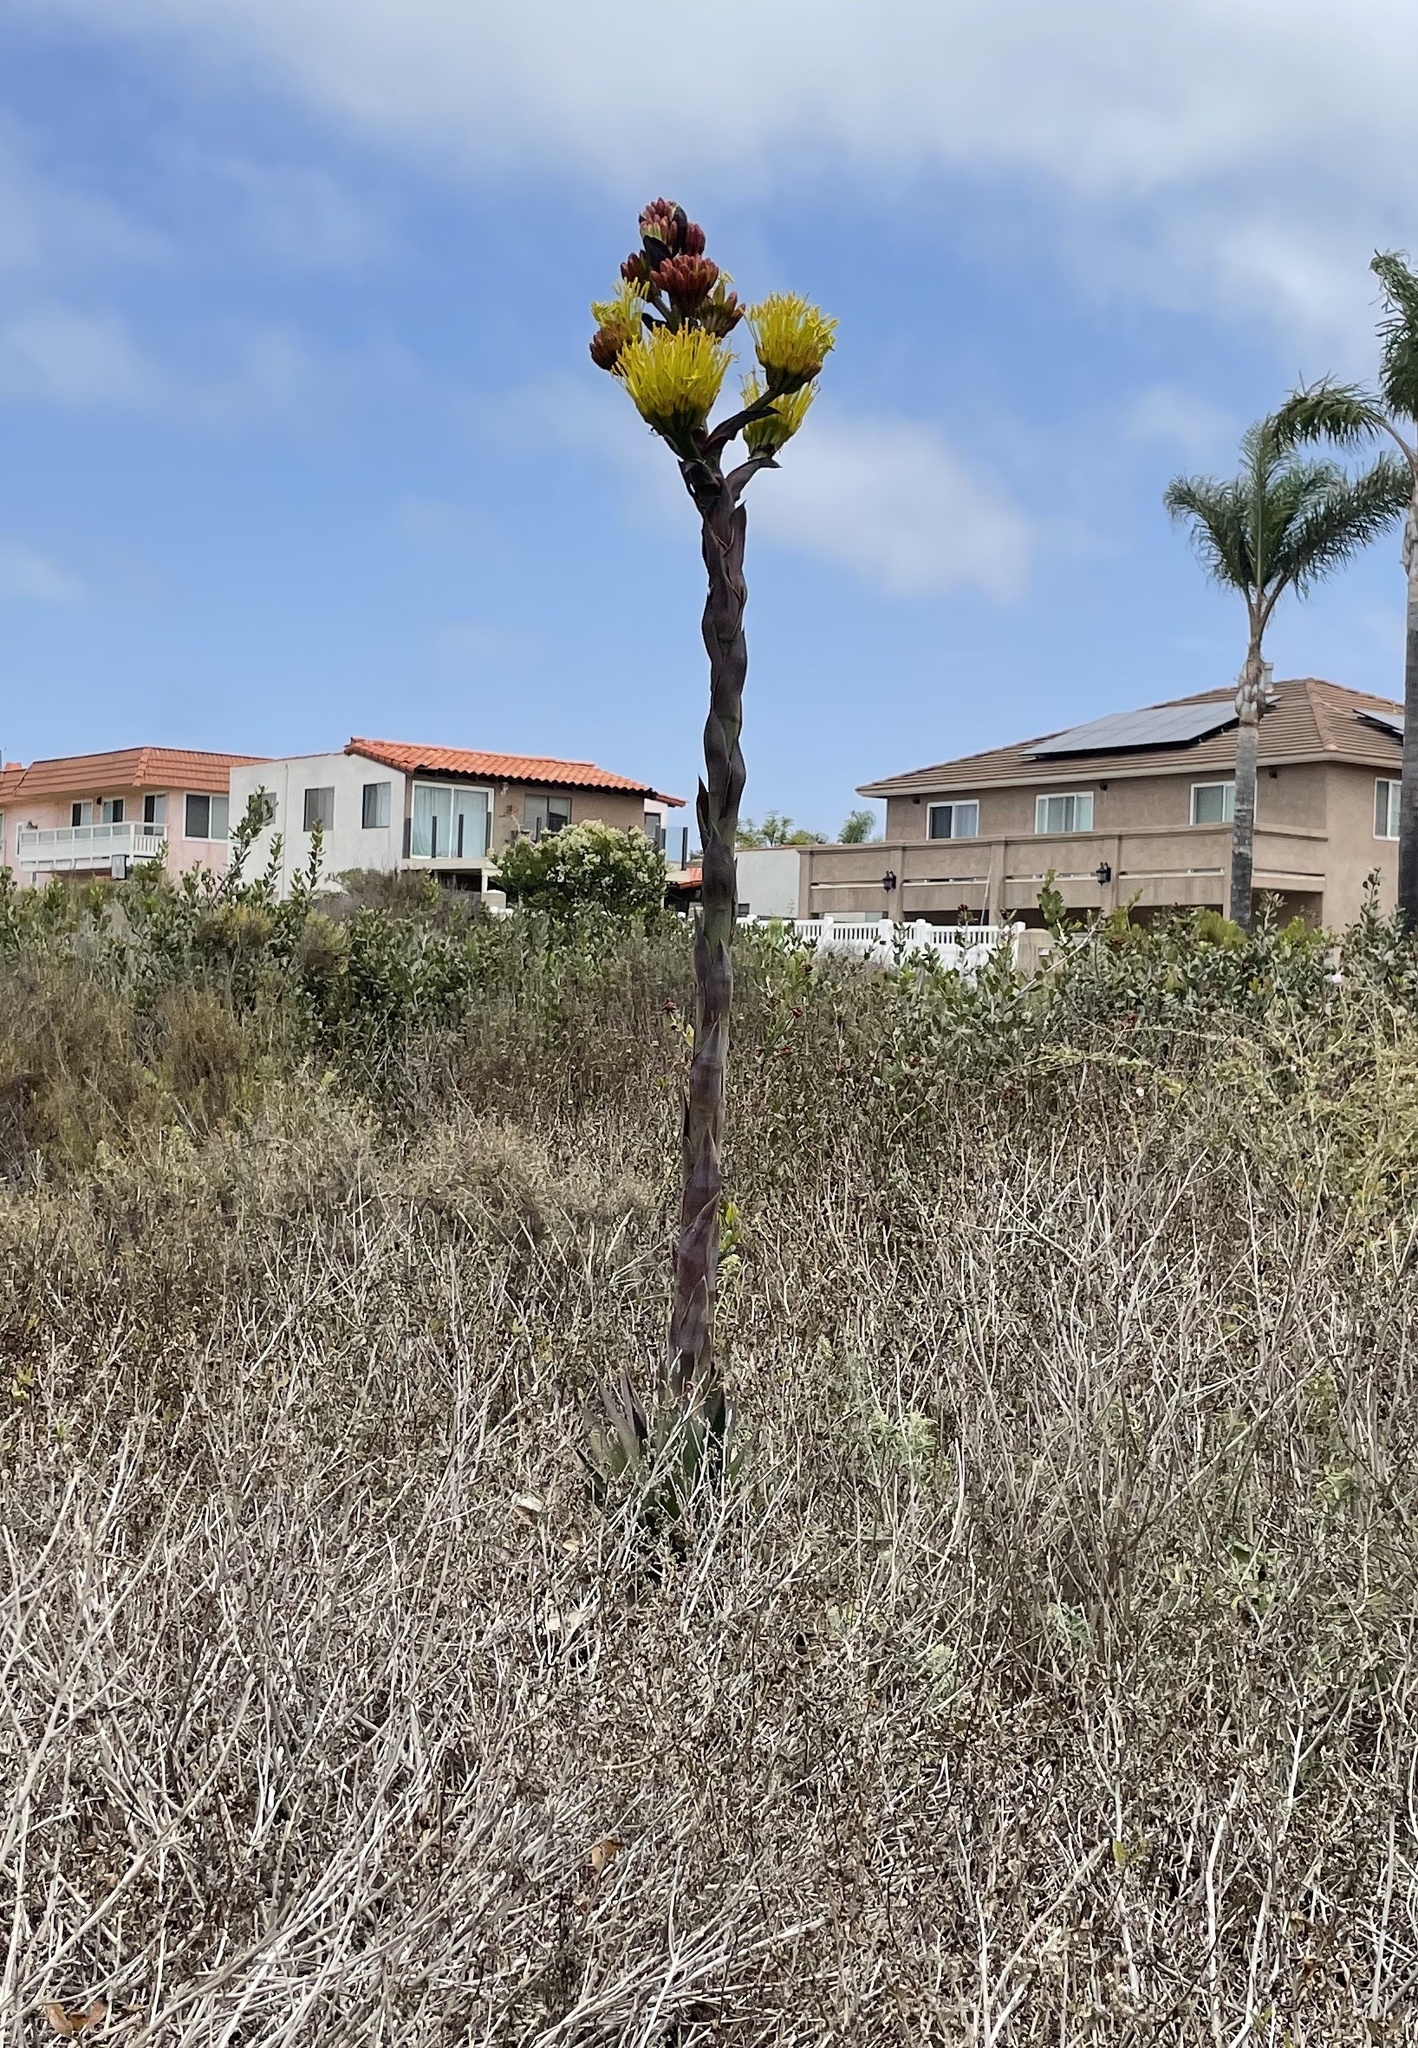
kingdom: Plantae
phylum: Tracheophyta
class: Liliopsida
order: Asparagales
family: Asparagaceae
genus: Agave
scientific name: Agave shawii
